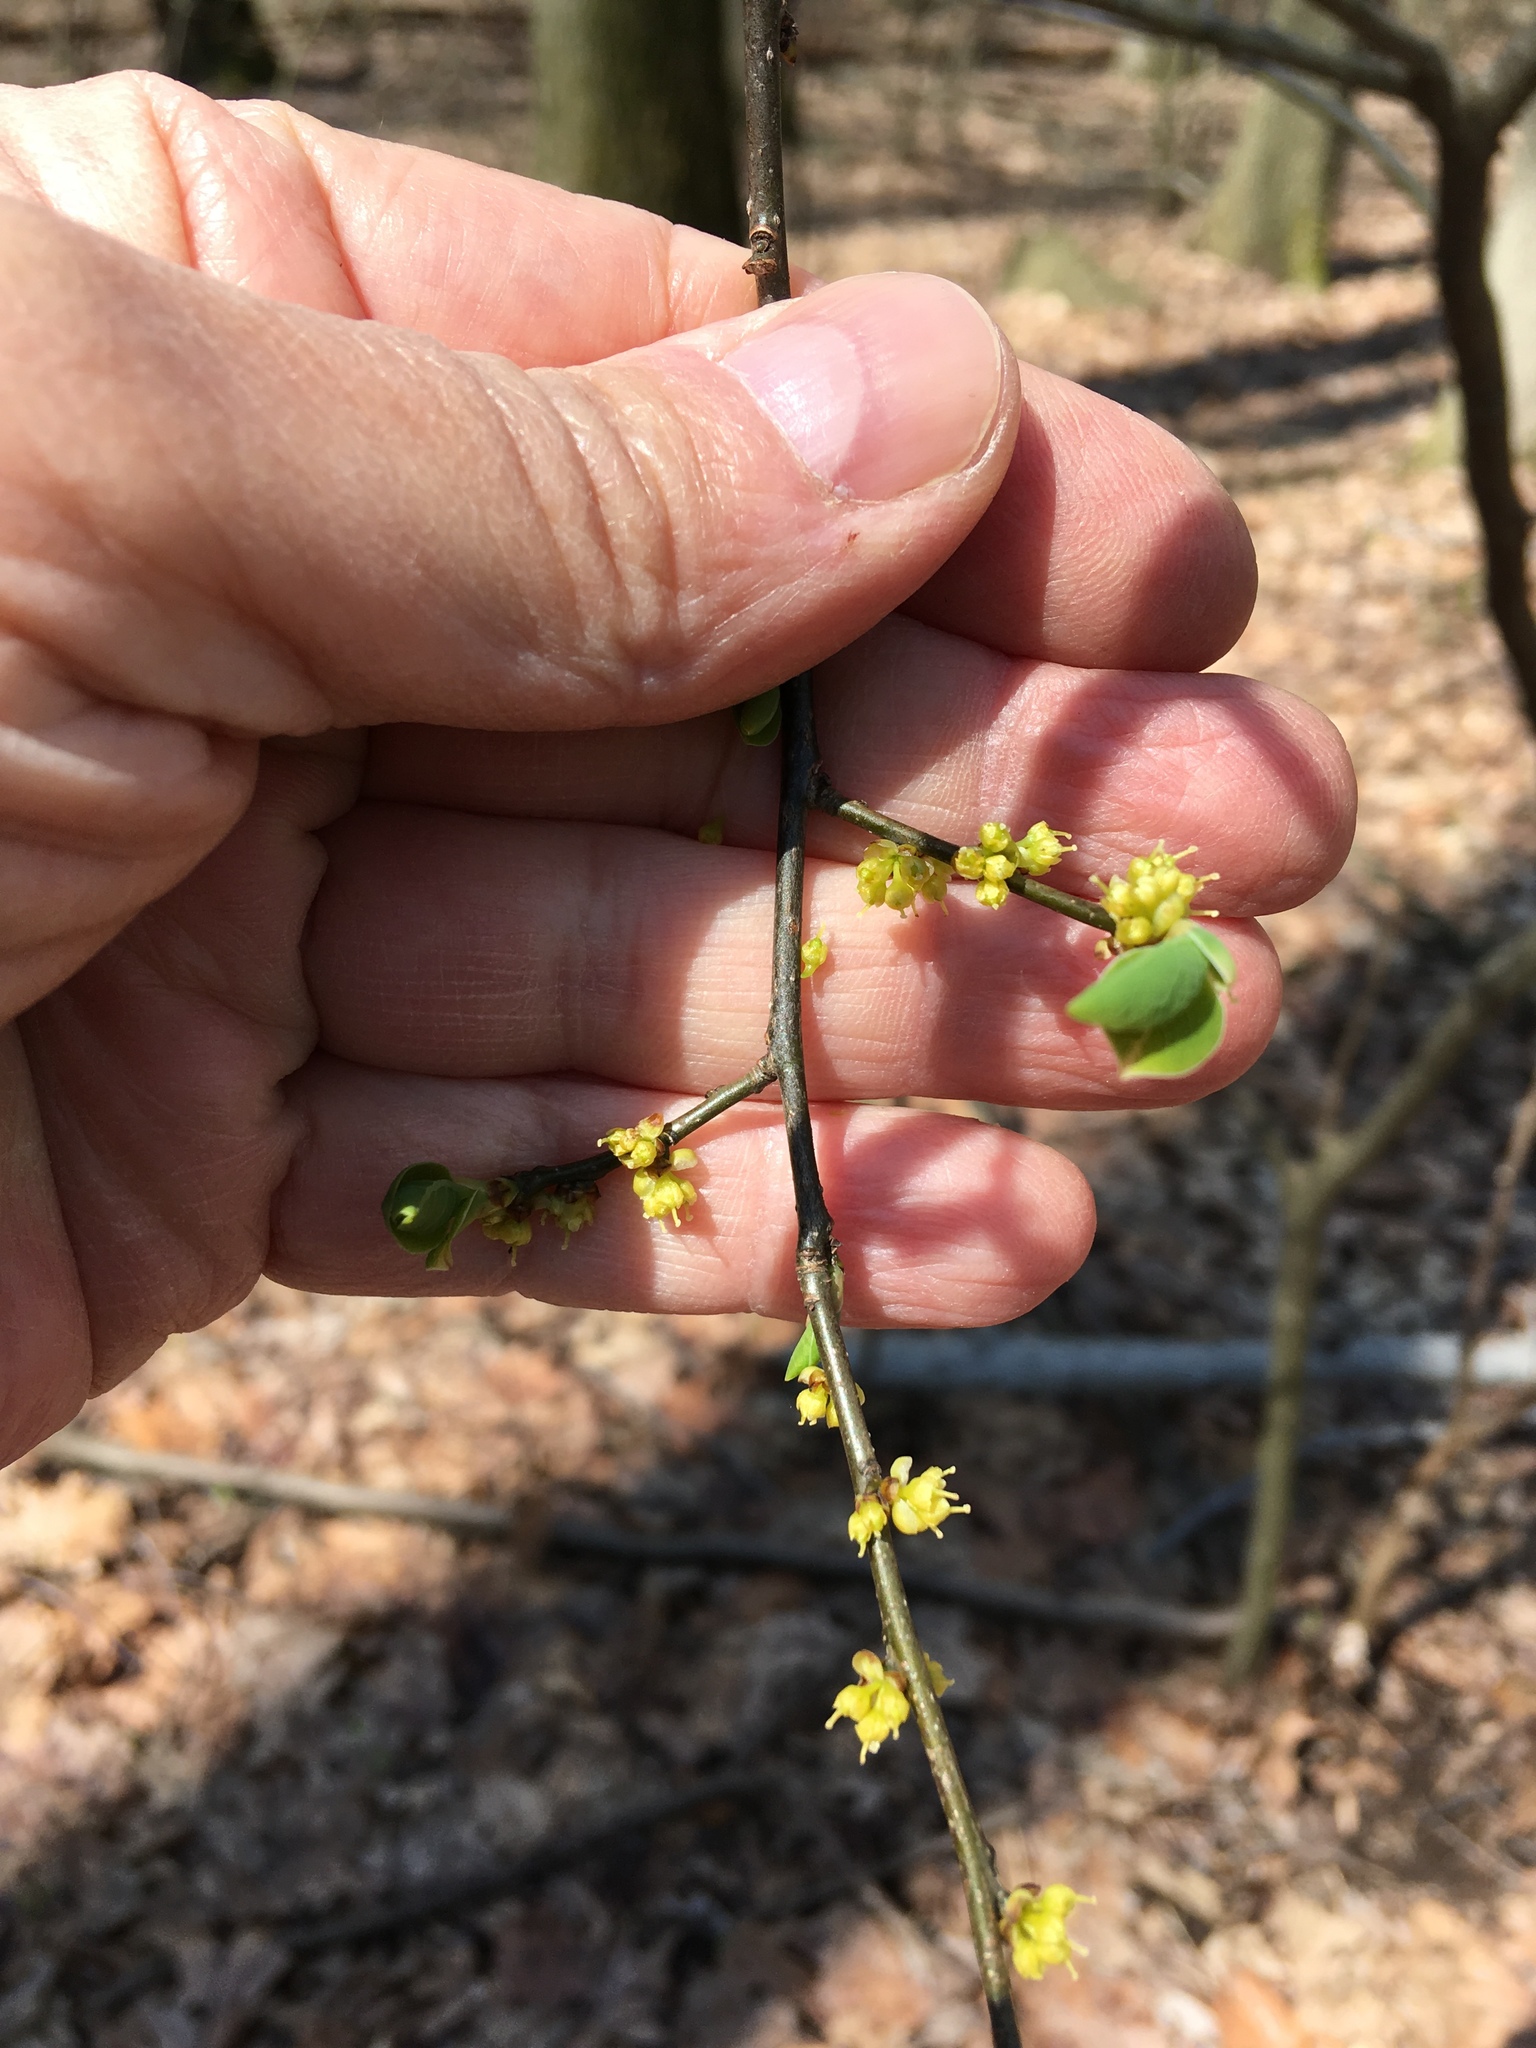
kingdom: Plantae
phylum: Tracheophyta
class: Magnoliopsida
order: Laurales
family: Lauraceae
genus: Lindera
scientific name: Lindera benzoin
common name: Spicebush
